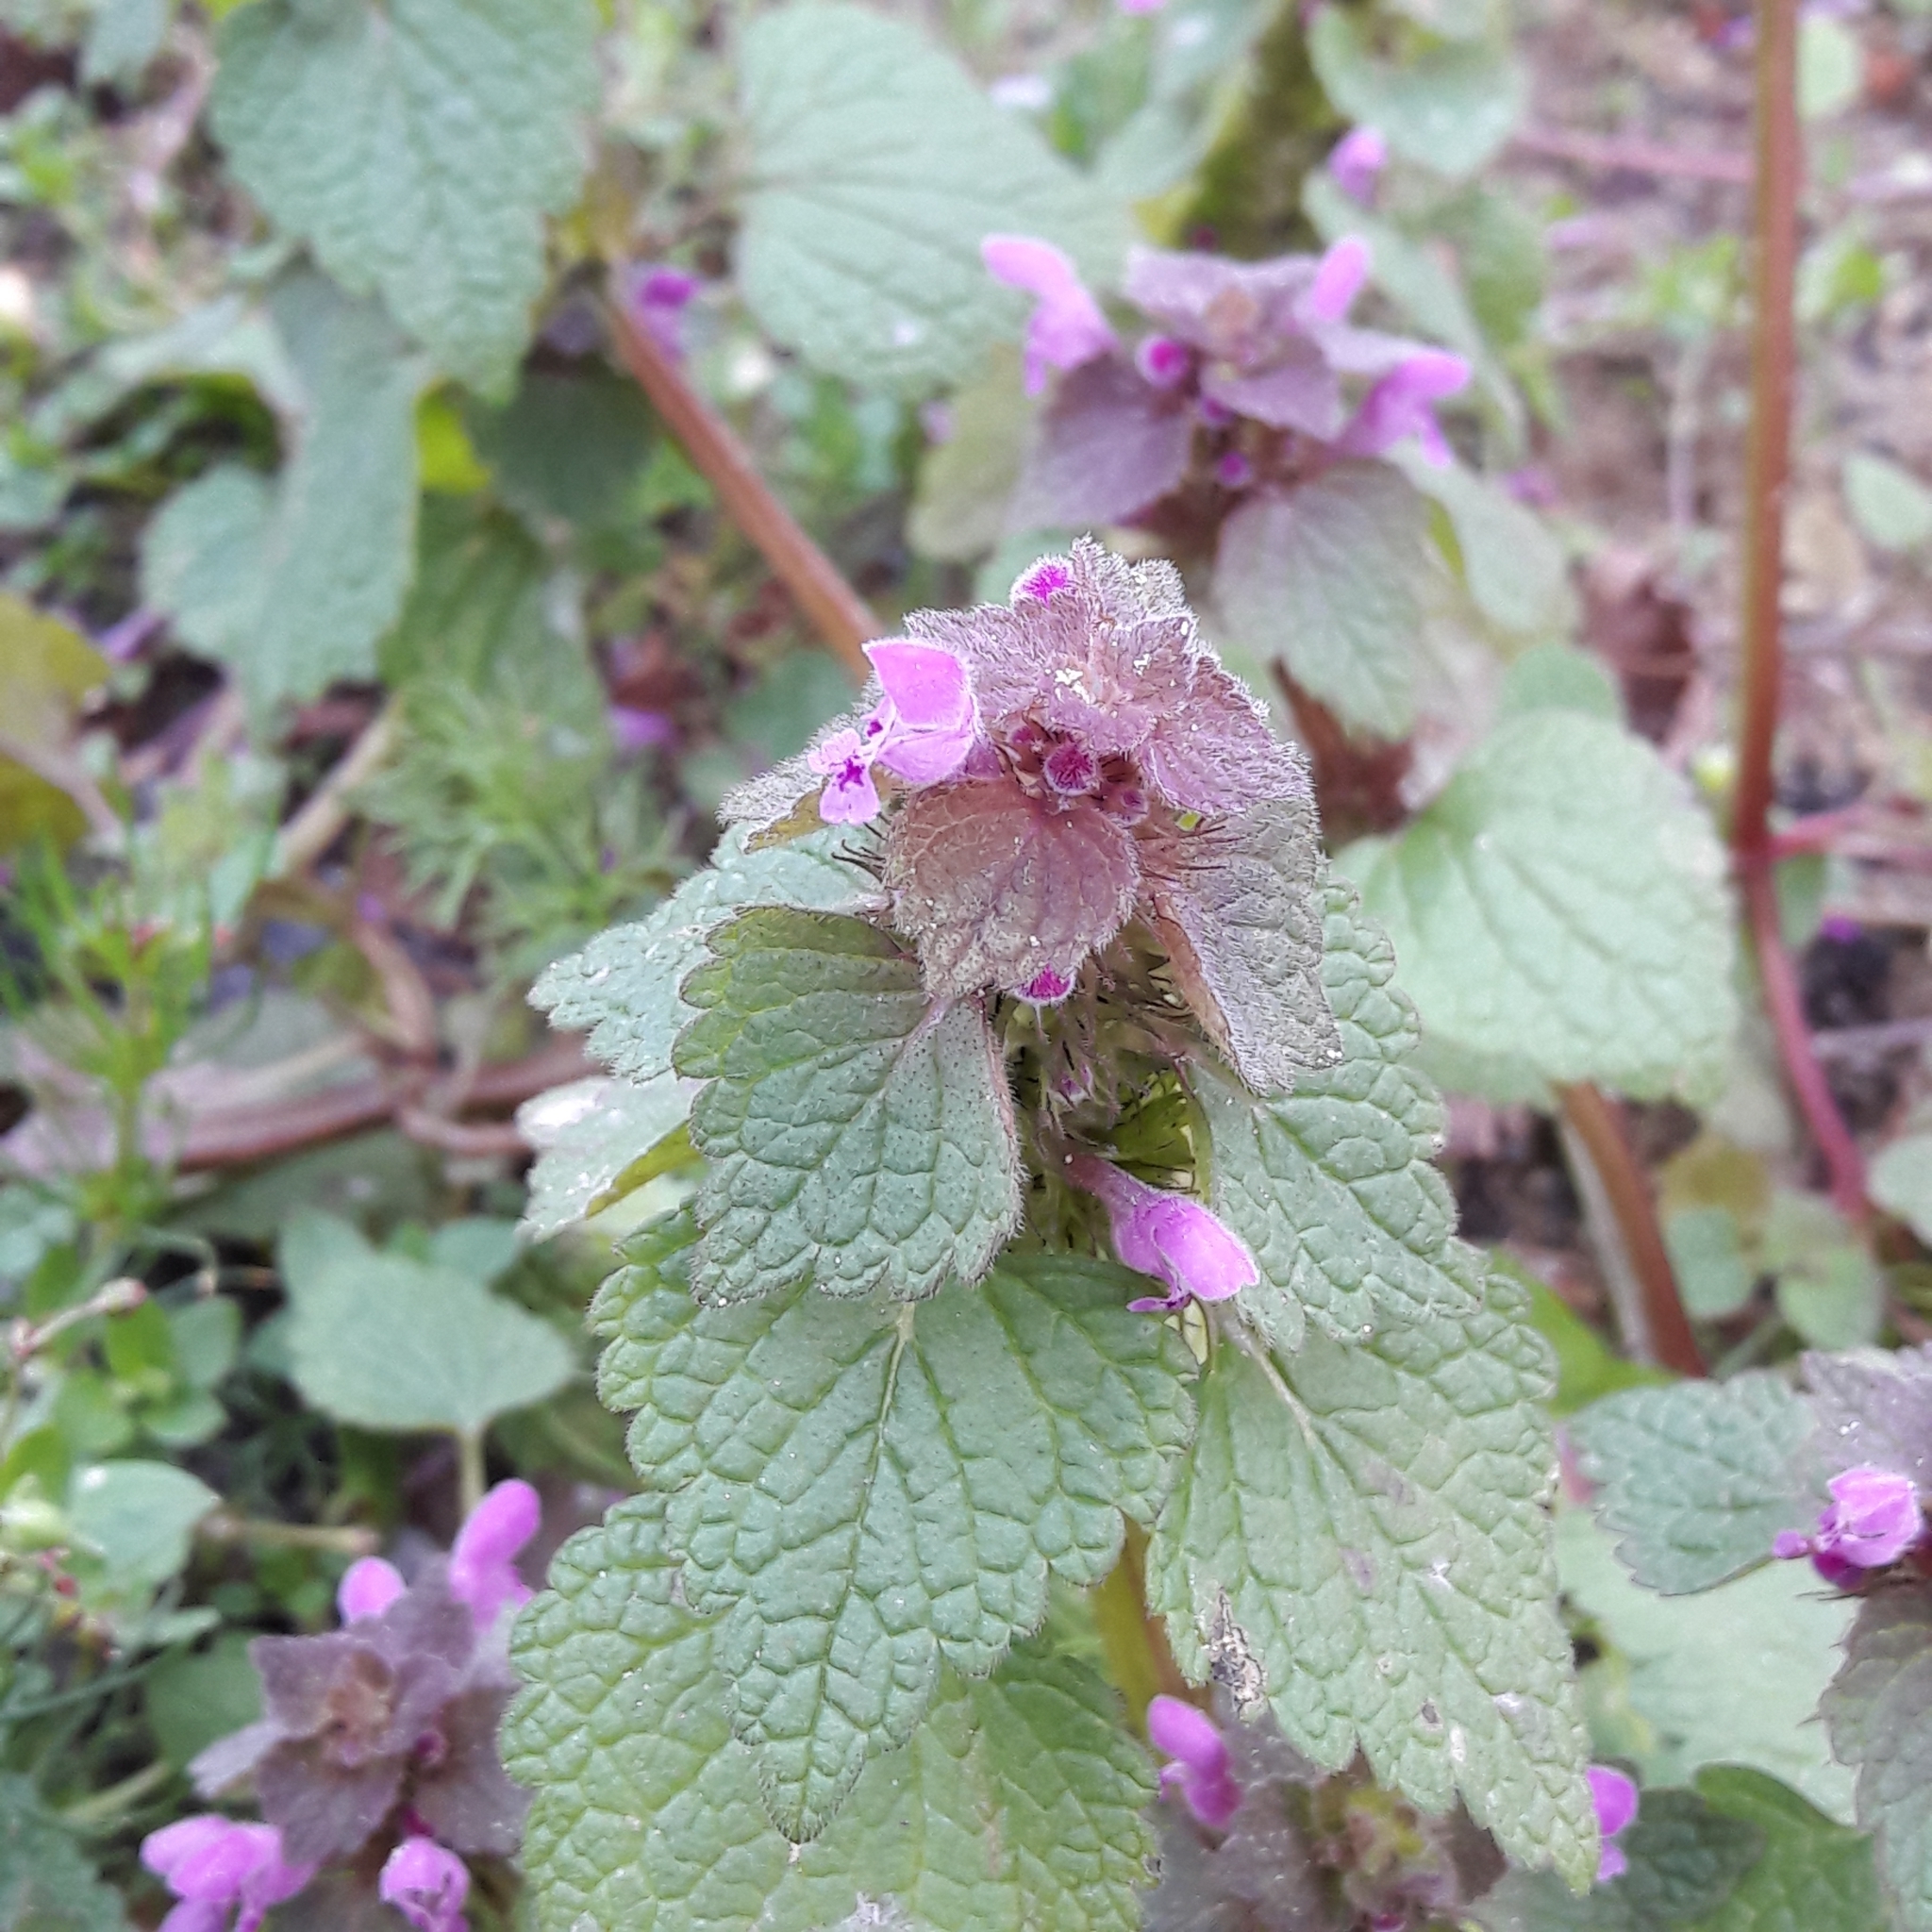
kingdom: Plantae
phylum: Tracheophyta
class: Magnoliopsida
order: Lamiales
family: Lamiaceae
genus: Lamium
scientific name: Lamium purpureum
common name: Red dead-nettle
